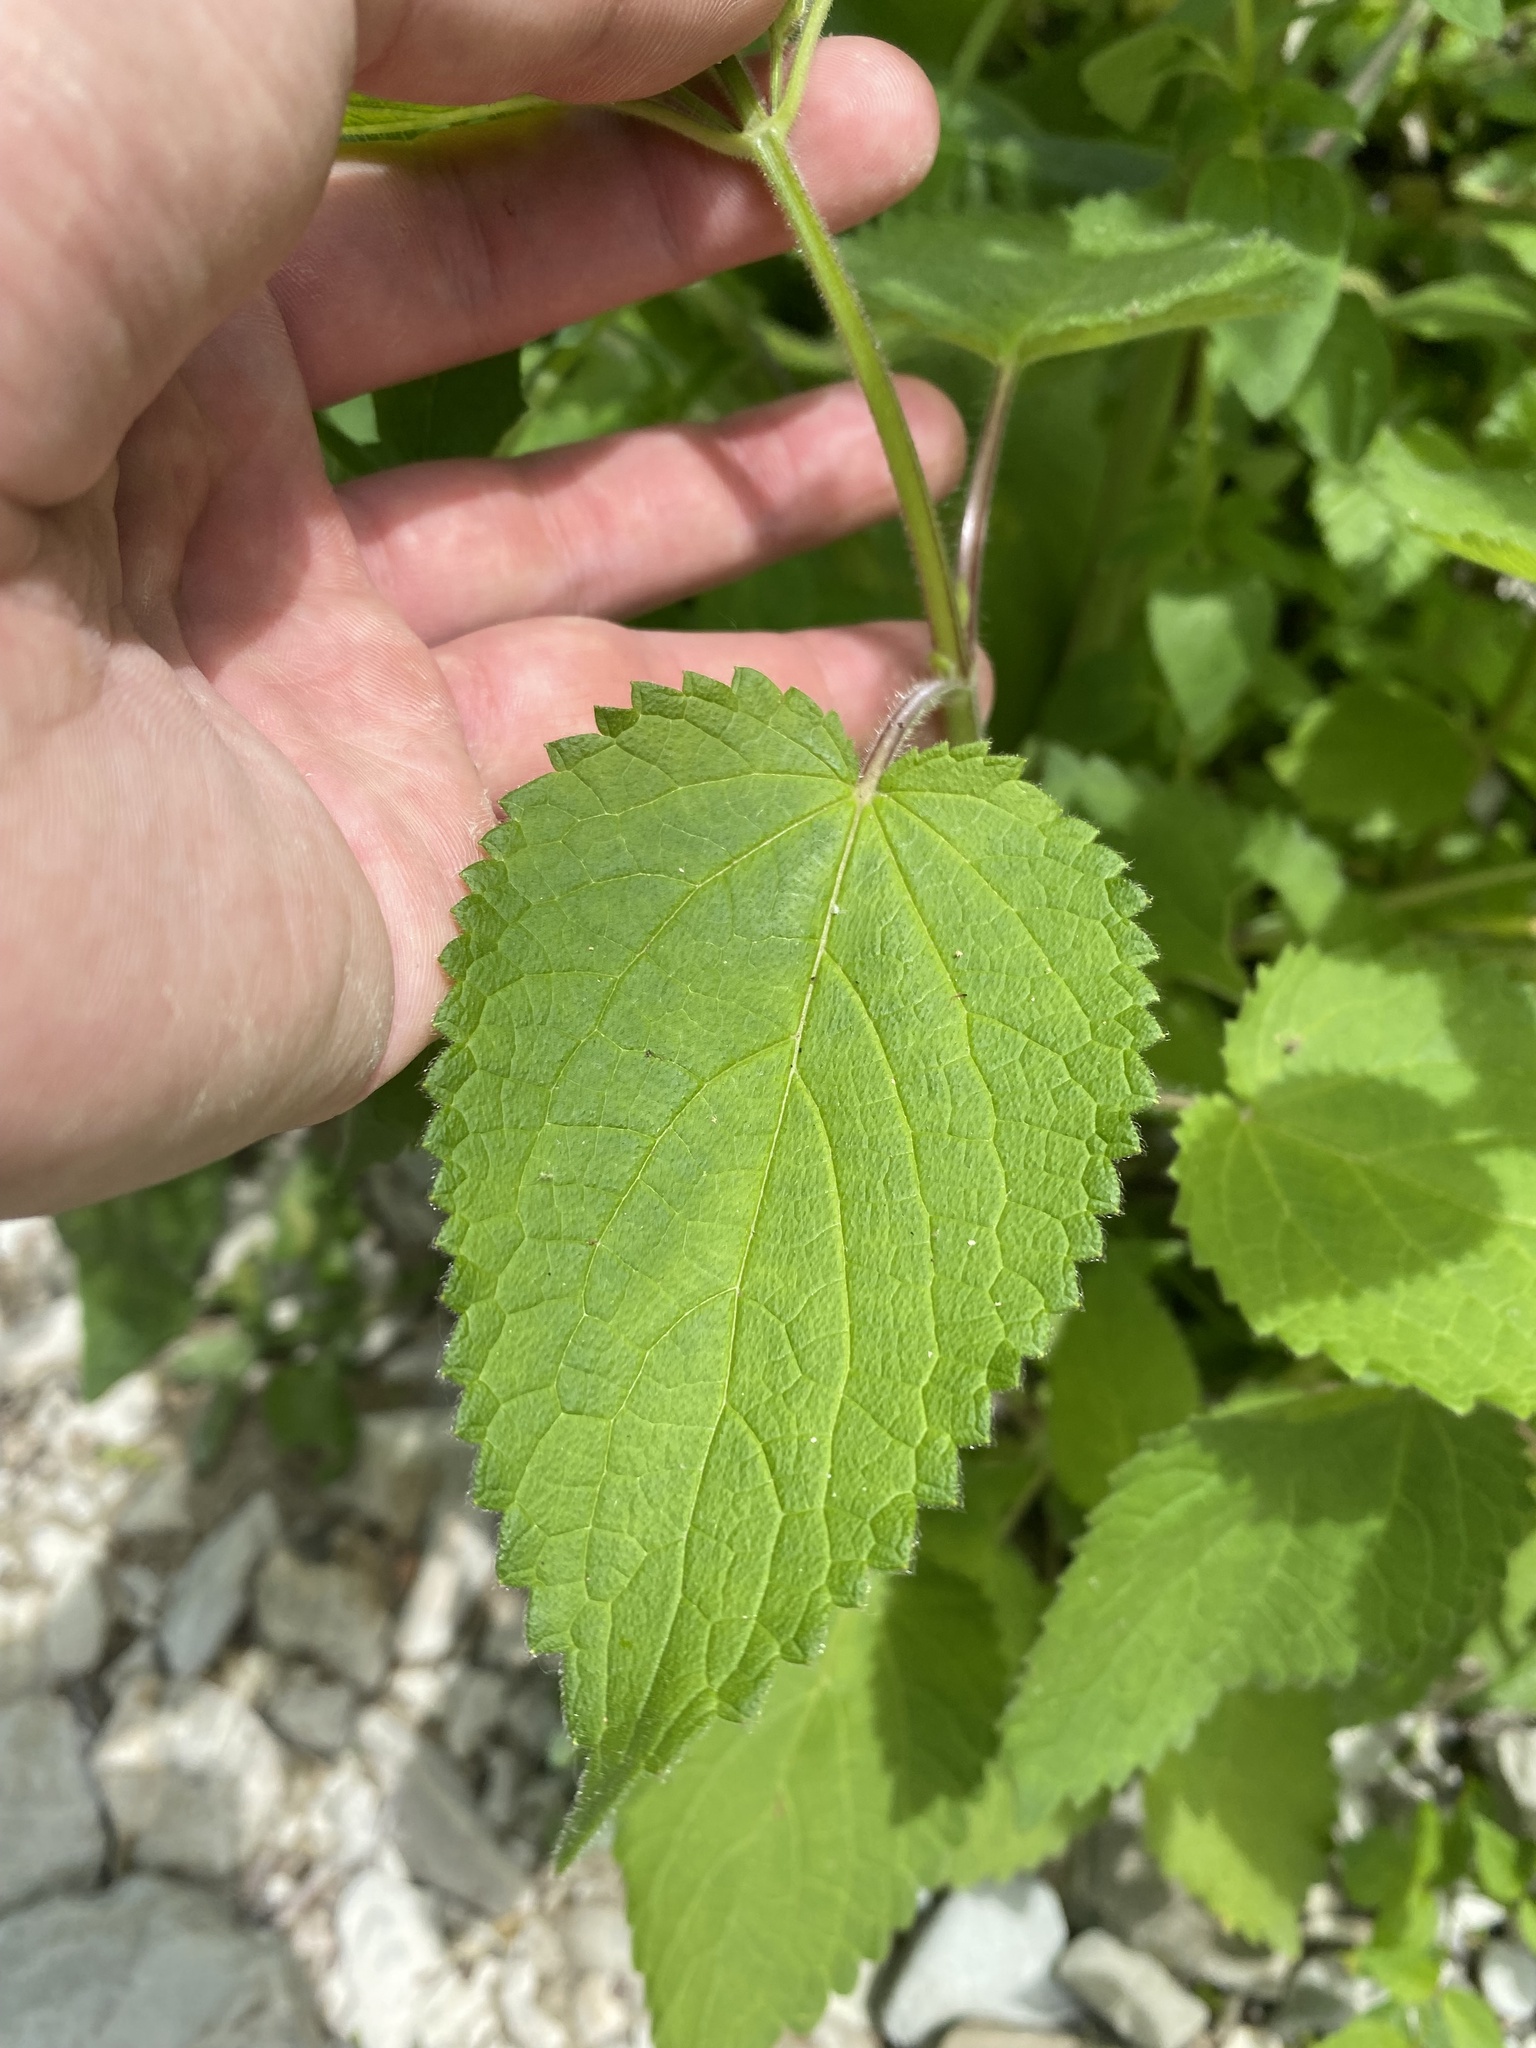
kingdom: Plantae
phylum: Tracheophyta
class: Magnoliopsida
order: Lamiales
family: Lamiaceae
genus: Stachys
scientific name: Stachys sylvatica
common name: Hedge woundwort
